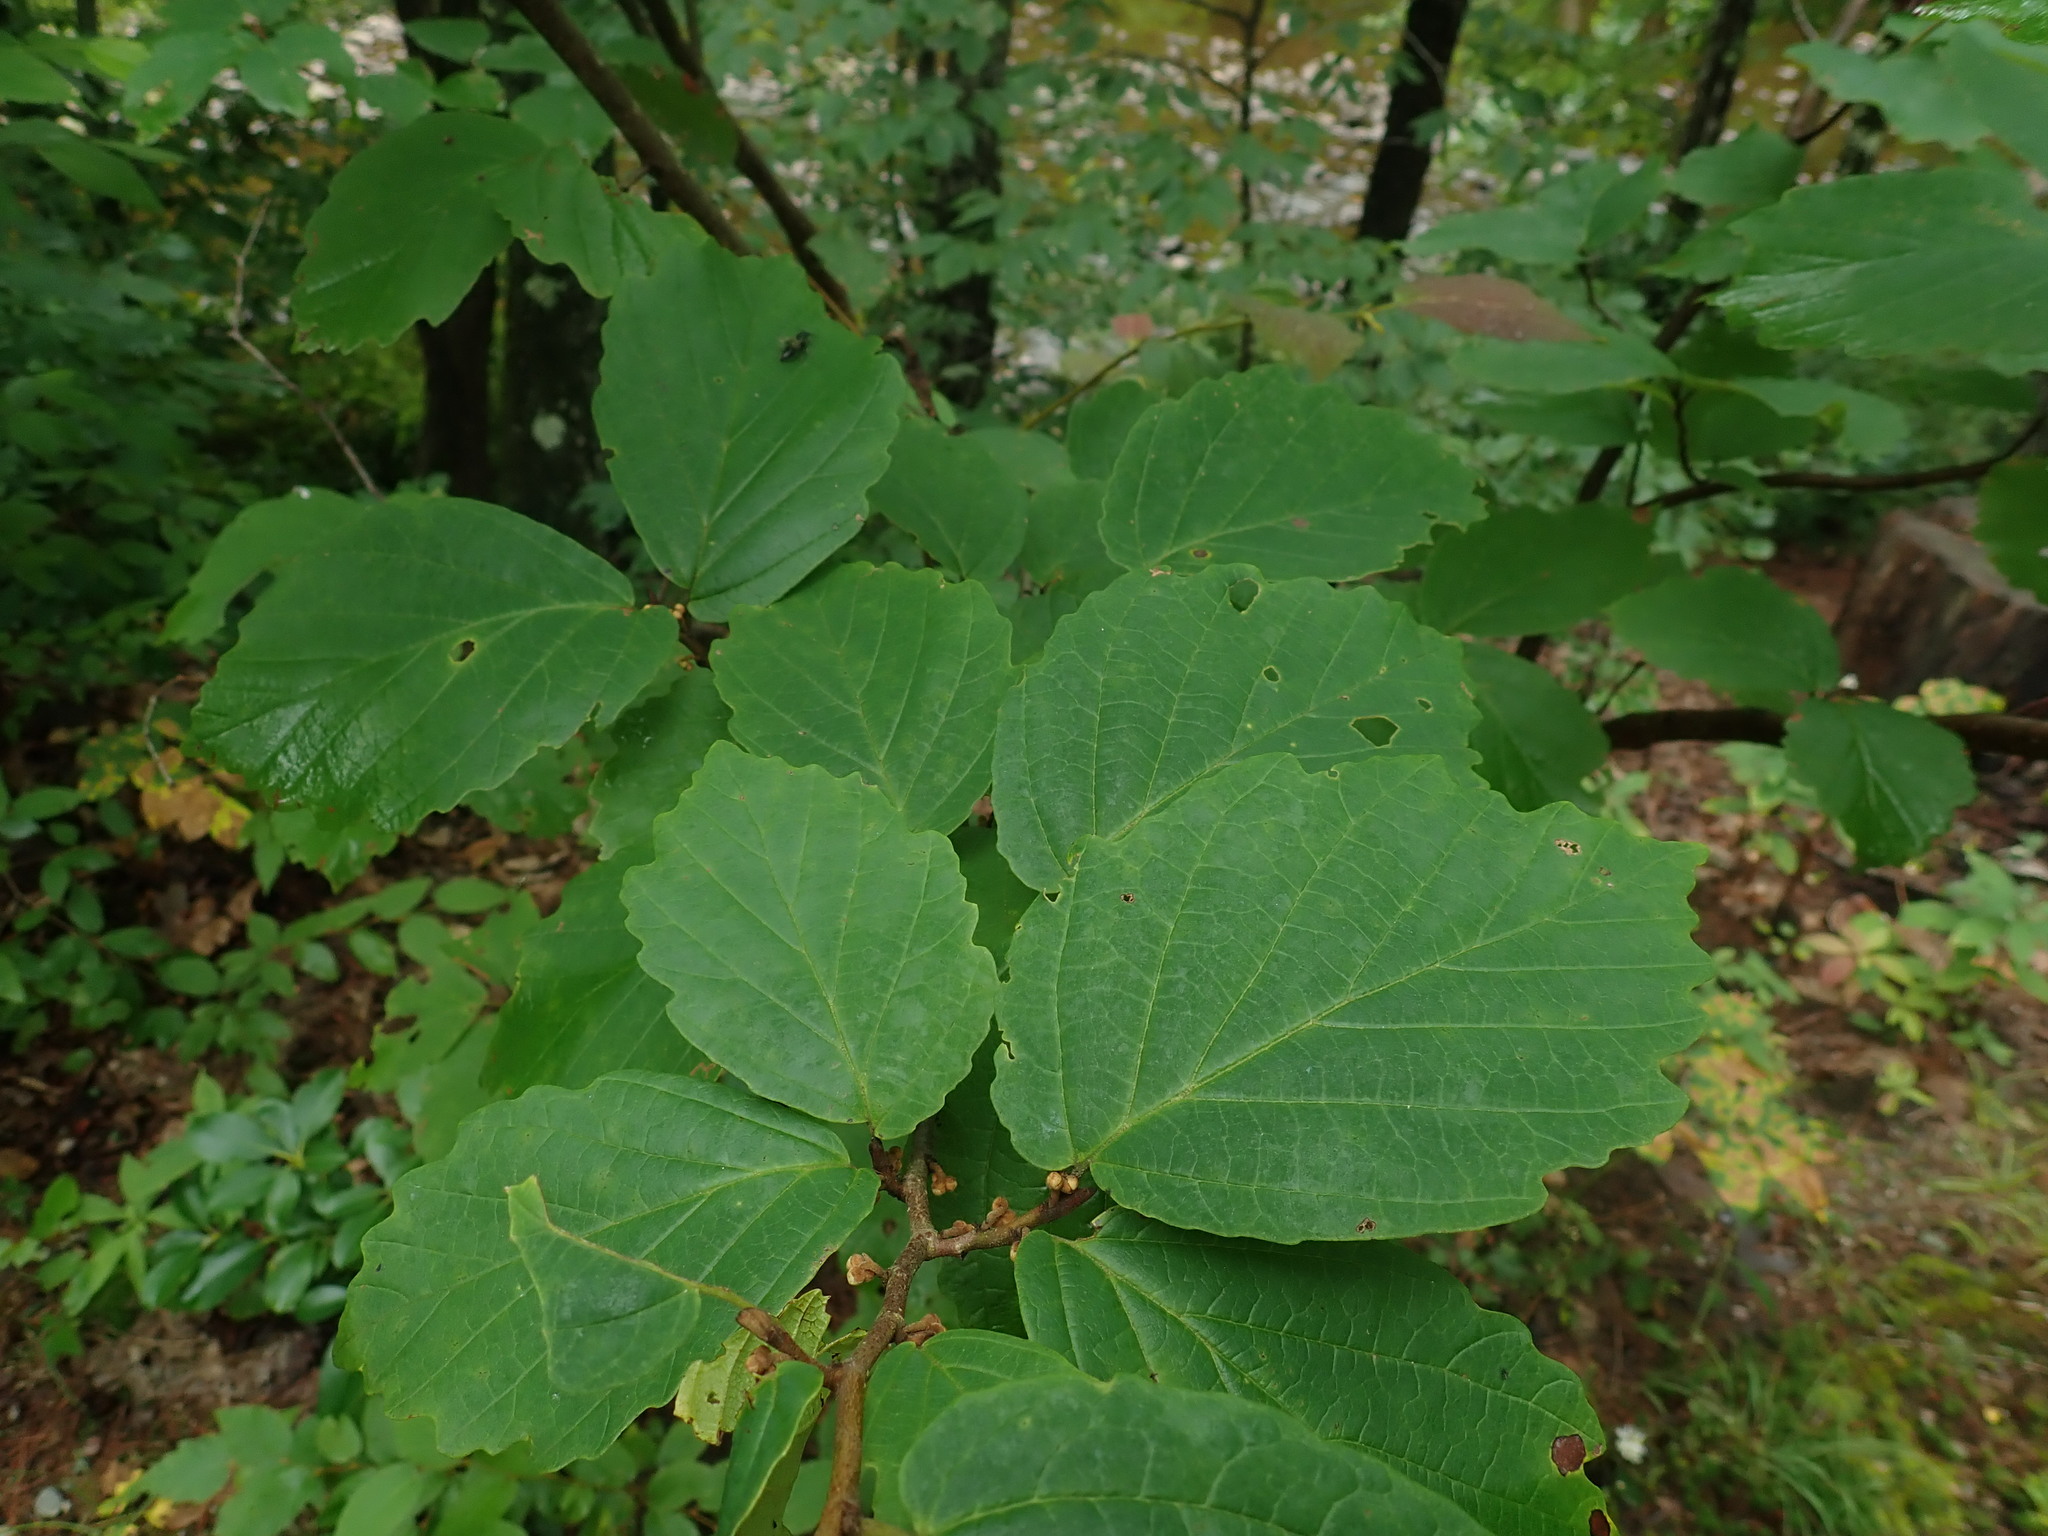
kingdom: Plantae
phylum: Tracheophyta
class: Magnoliopsida
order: Saxifragales
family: Hamamelidaceae
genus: Hamamelis
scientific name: Hamamelis virginiana
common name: Witch-hazel
